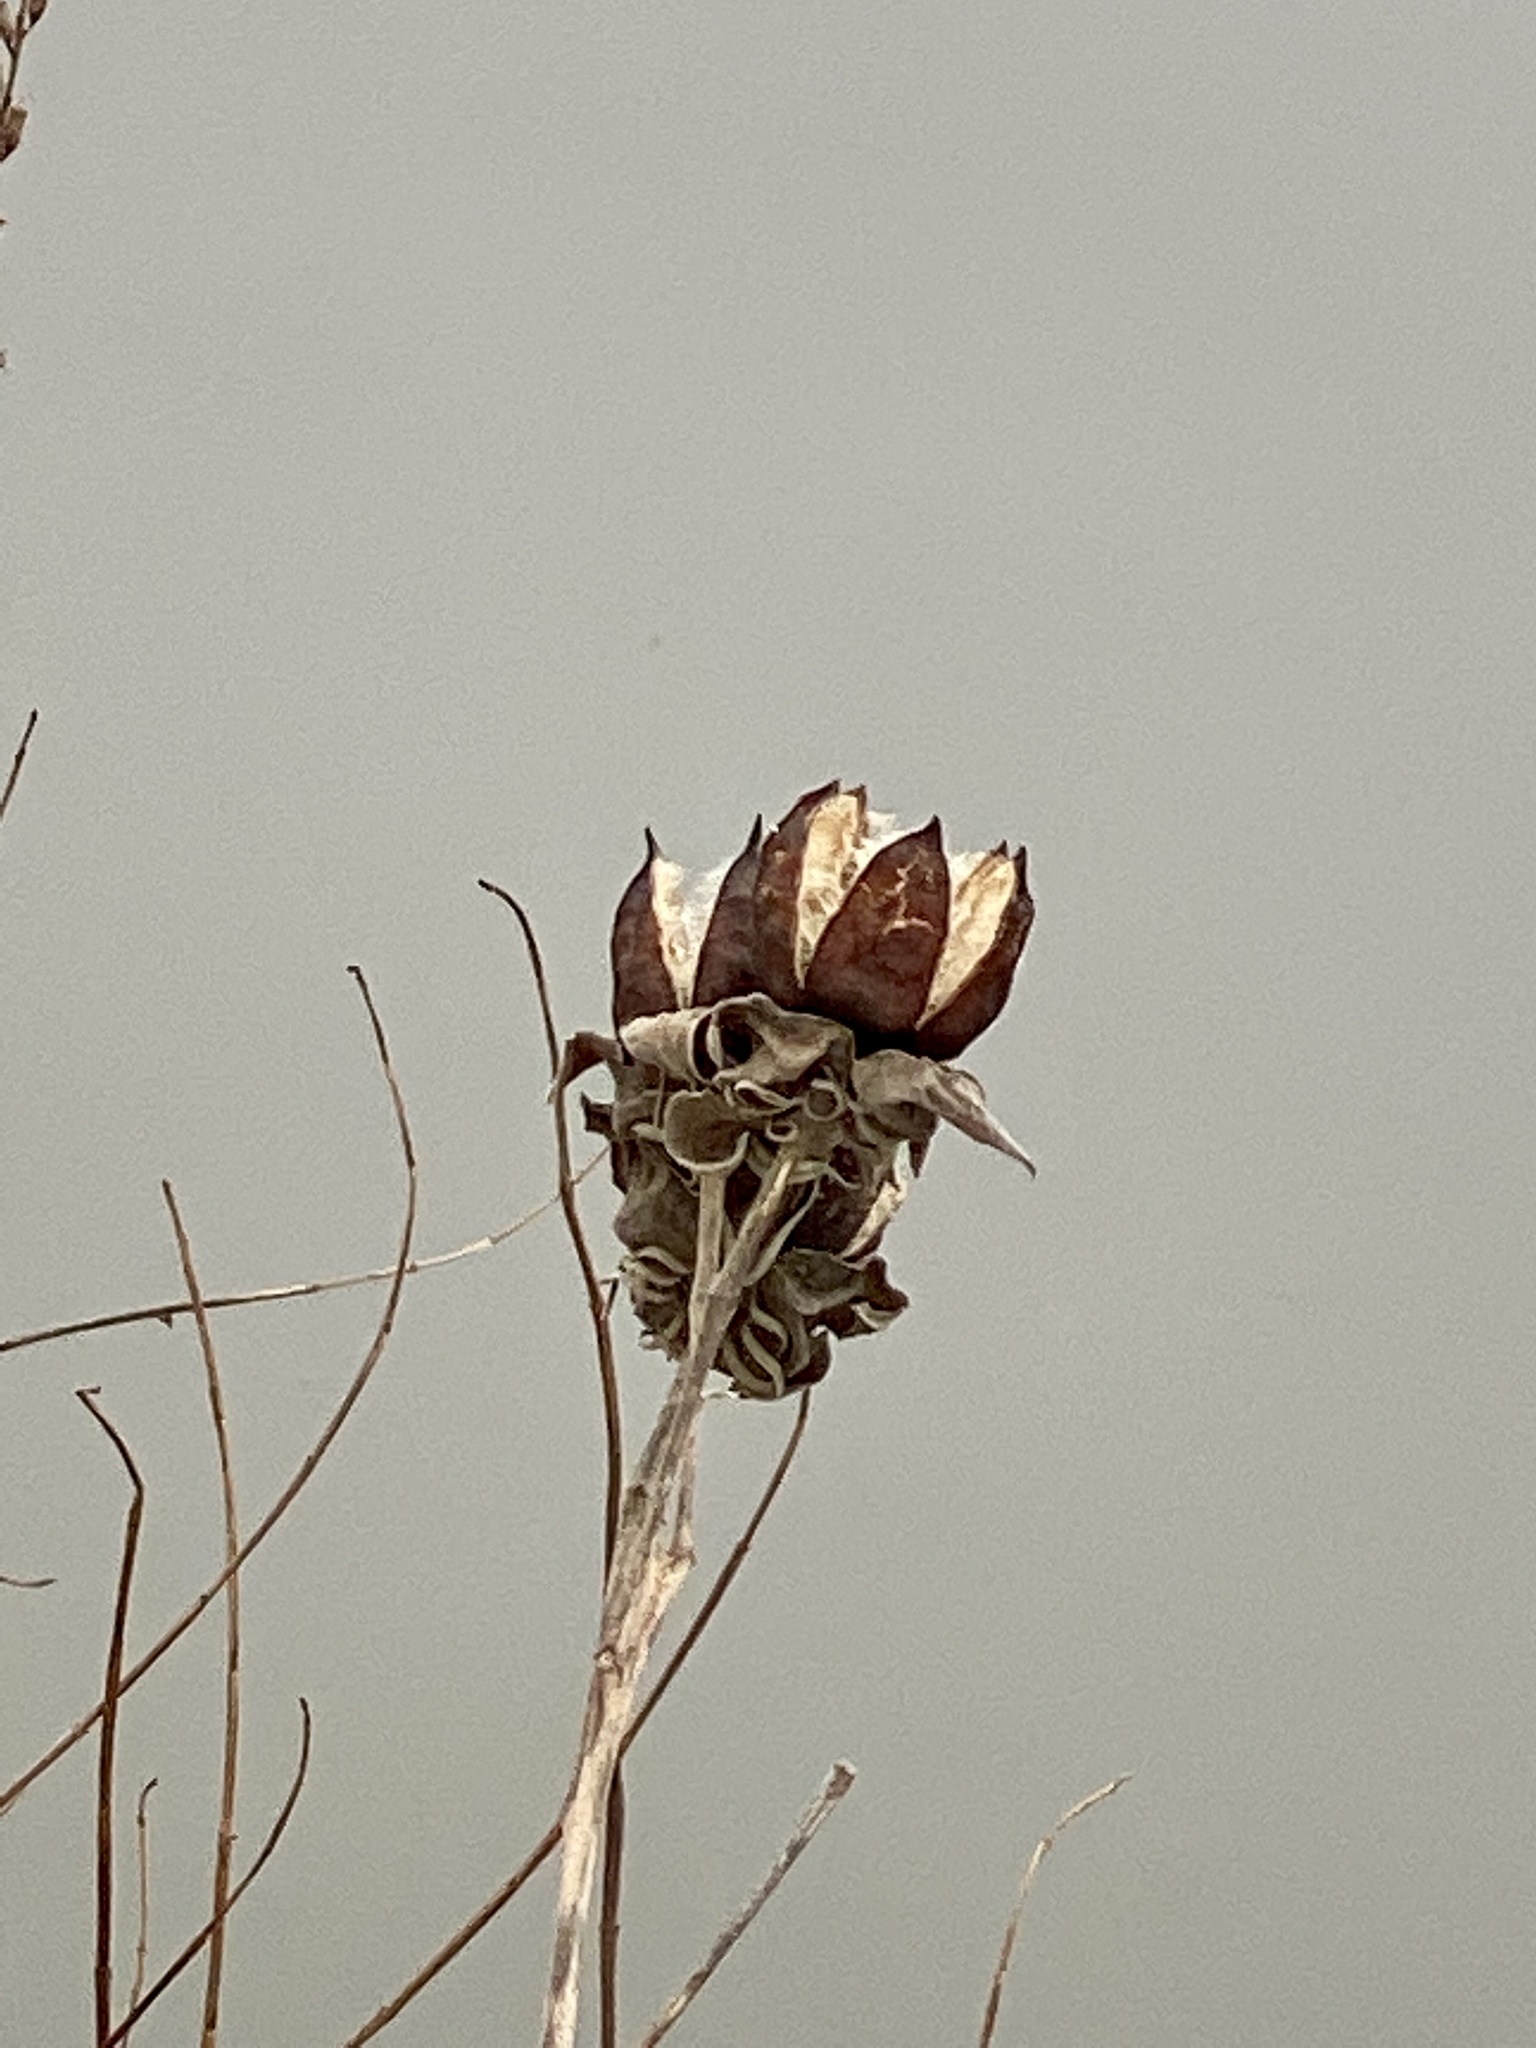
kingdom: Plantae
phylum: Tracheophyta
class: Magnoliopsida
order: Malvales
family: Malvaceae
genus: Hibiscus
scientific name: Hibiscus moscheutos
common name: Common rose-mallow
